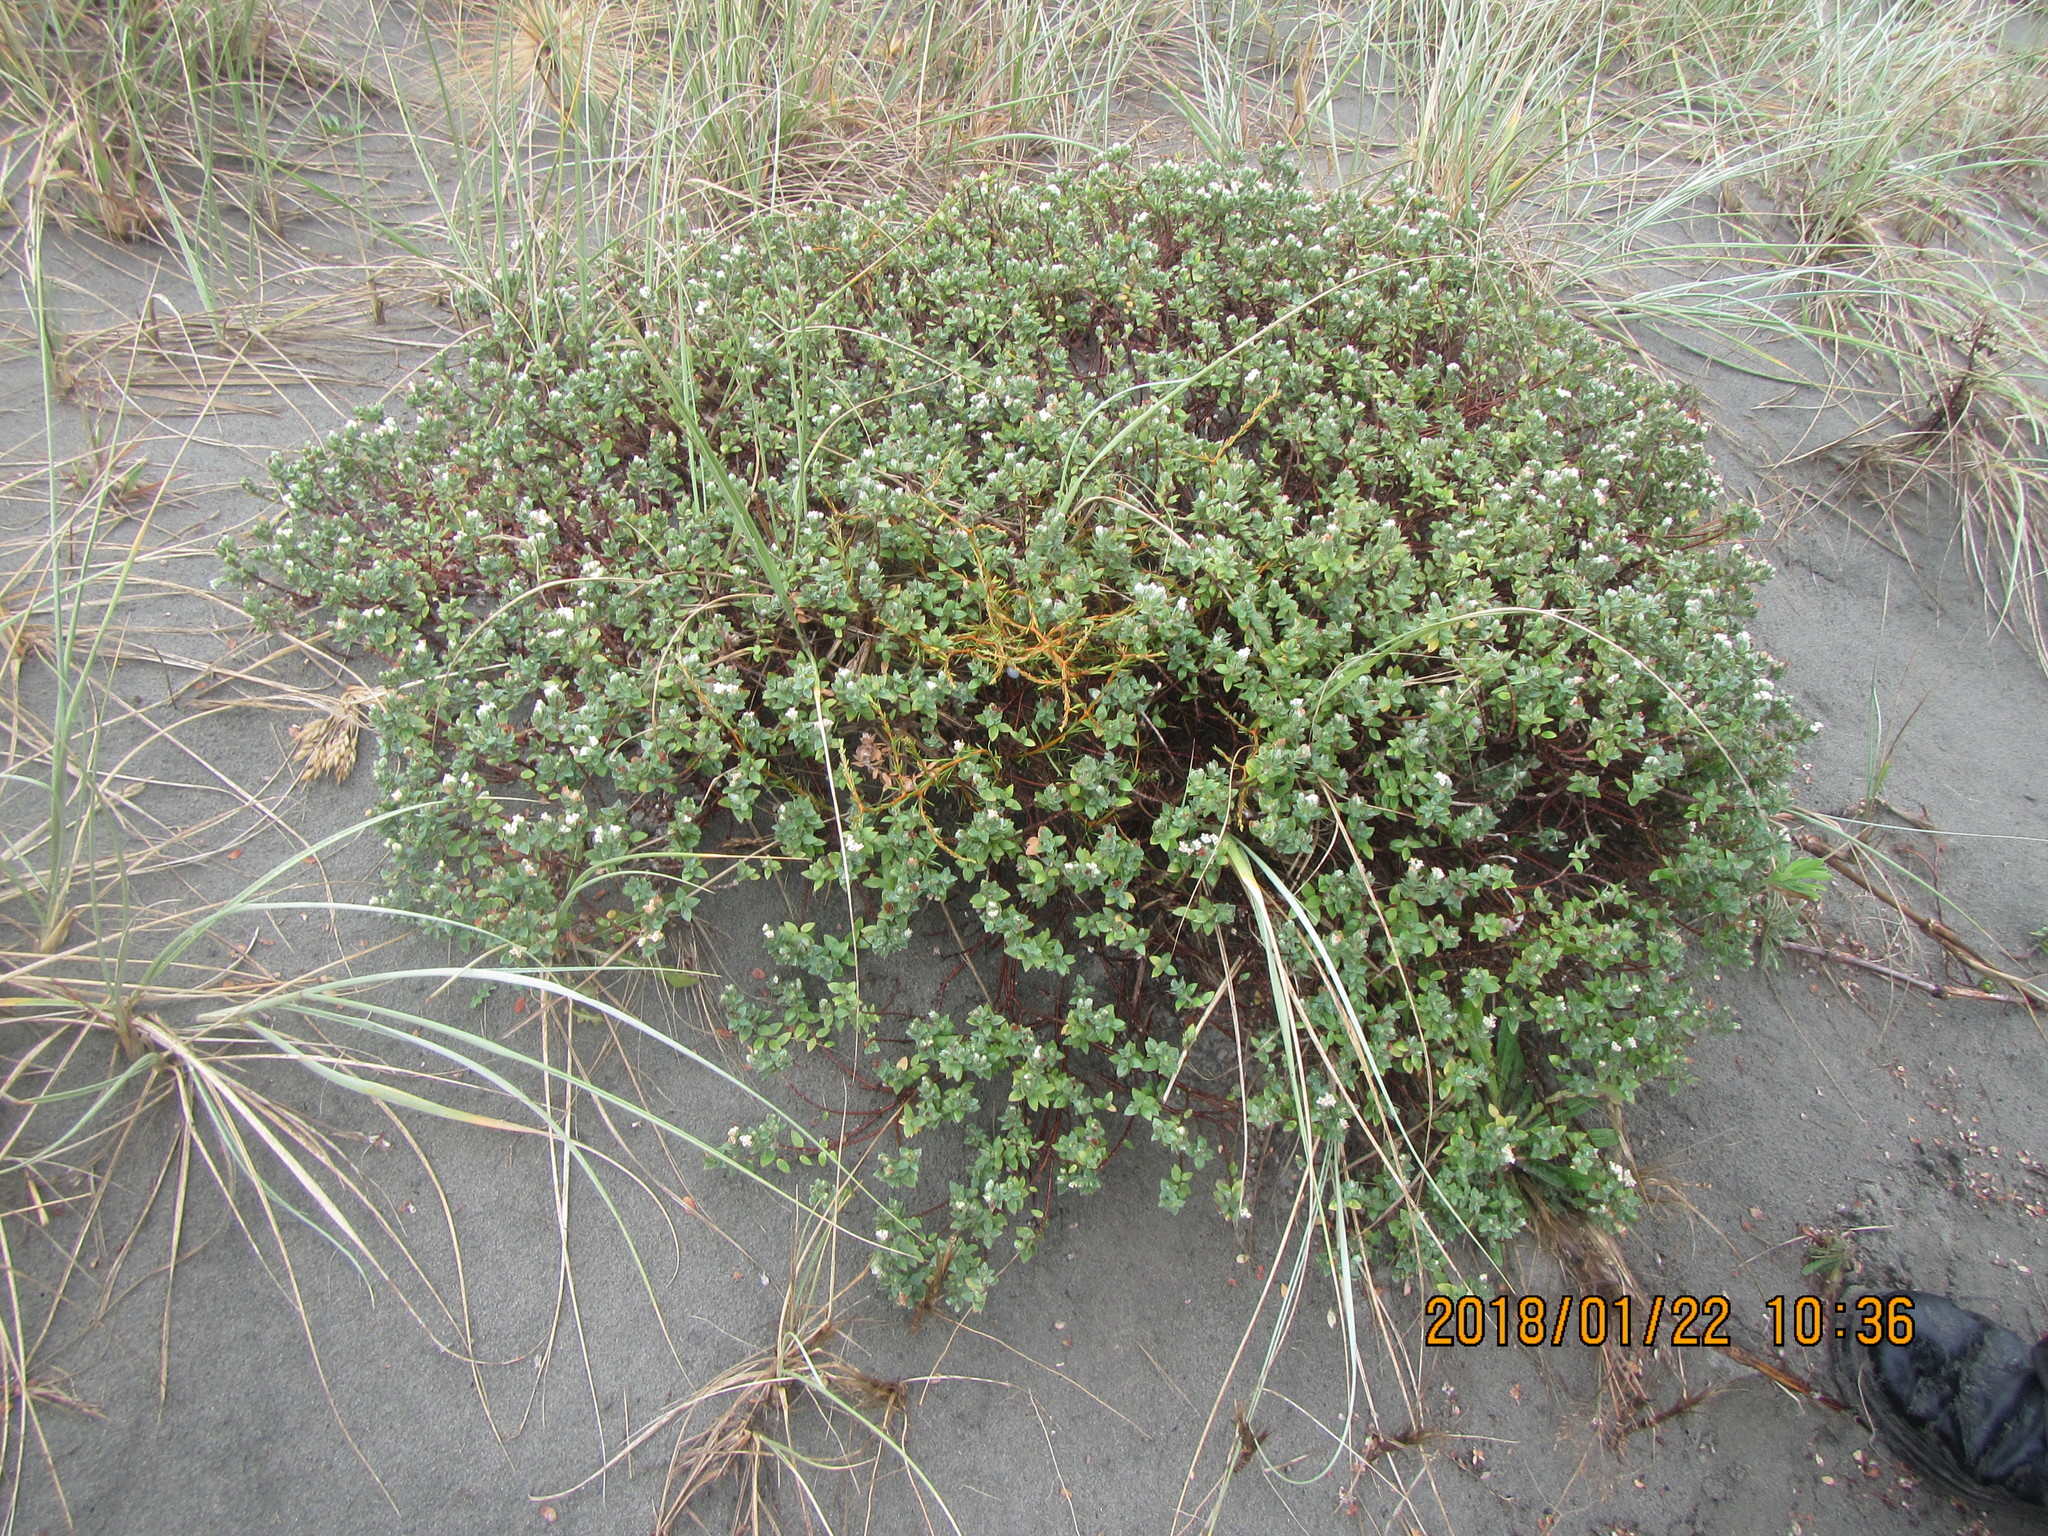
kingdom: Plantae
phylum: Tracheophyta
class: Magnoliopsida
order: Malvales
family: Thymelaeaceae
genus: Pimelea
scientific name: Pimelea villosa
